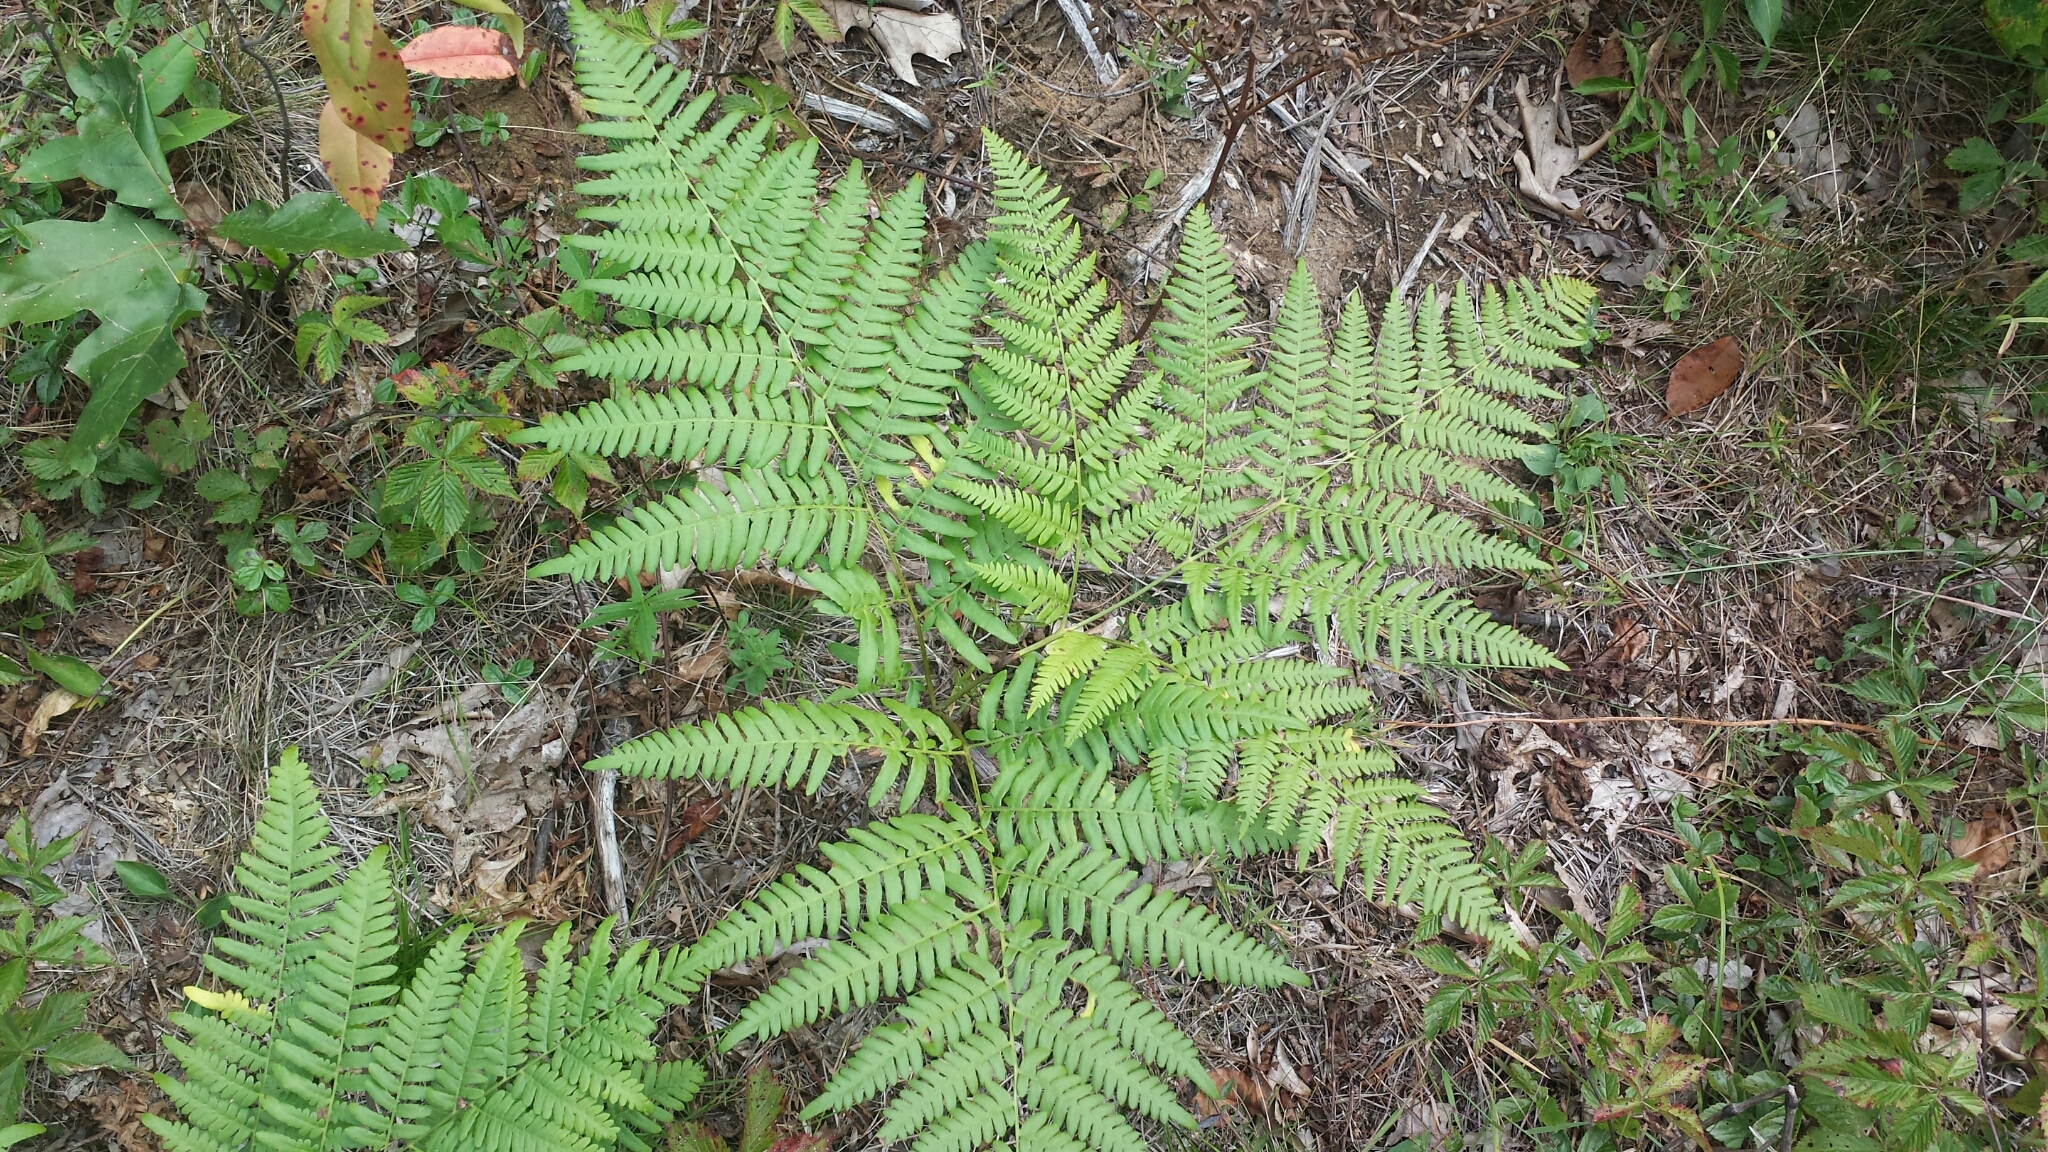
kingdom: Plantae
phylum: Tracheophyta
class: Polypodiopsida
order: Polypodiales
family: Dennstaedtiaceae
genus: Pteridium
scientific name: Pteridium aquilinum
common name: Bracken
